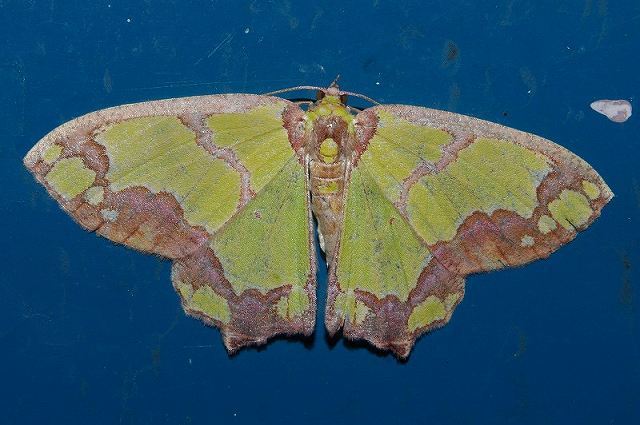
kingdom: Animalia
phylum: Arthropoda
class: Insecta
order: Lepidoptera
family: Geometridae
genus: Agathia
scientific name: Agathia visenda
